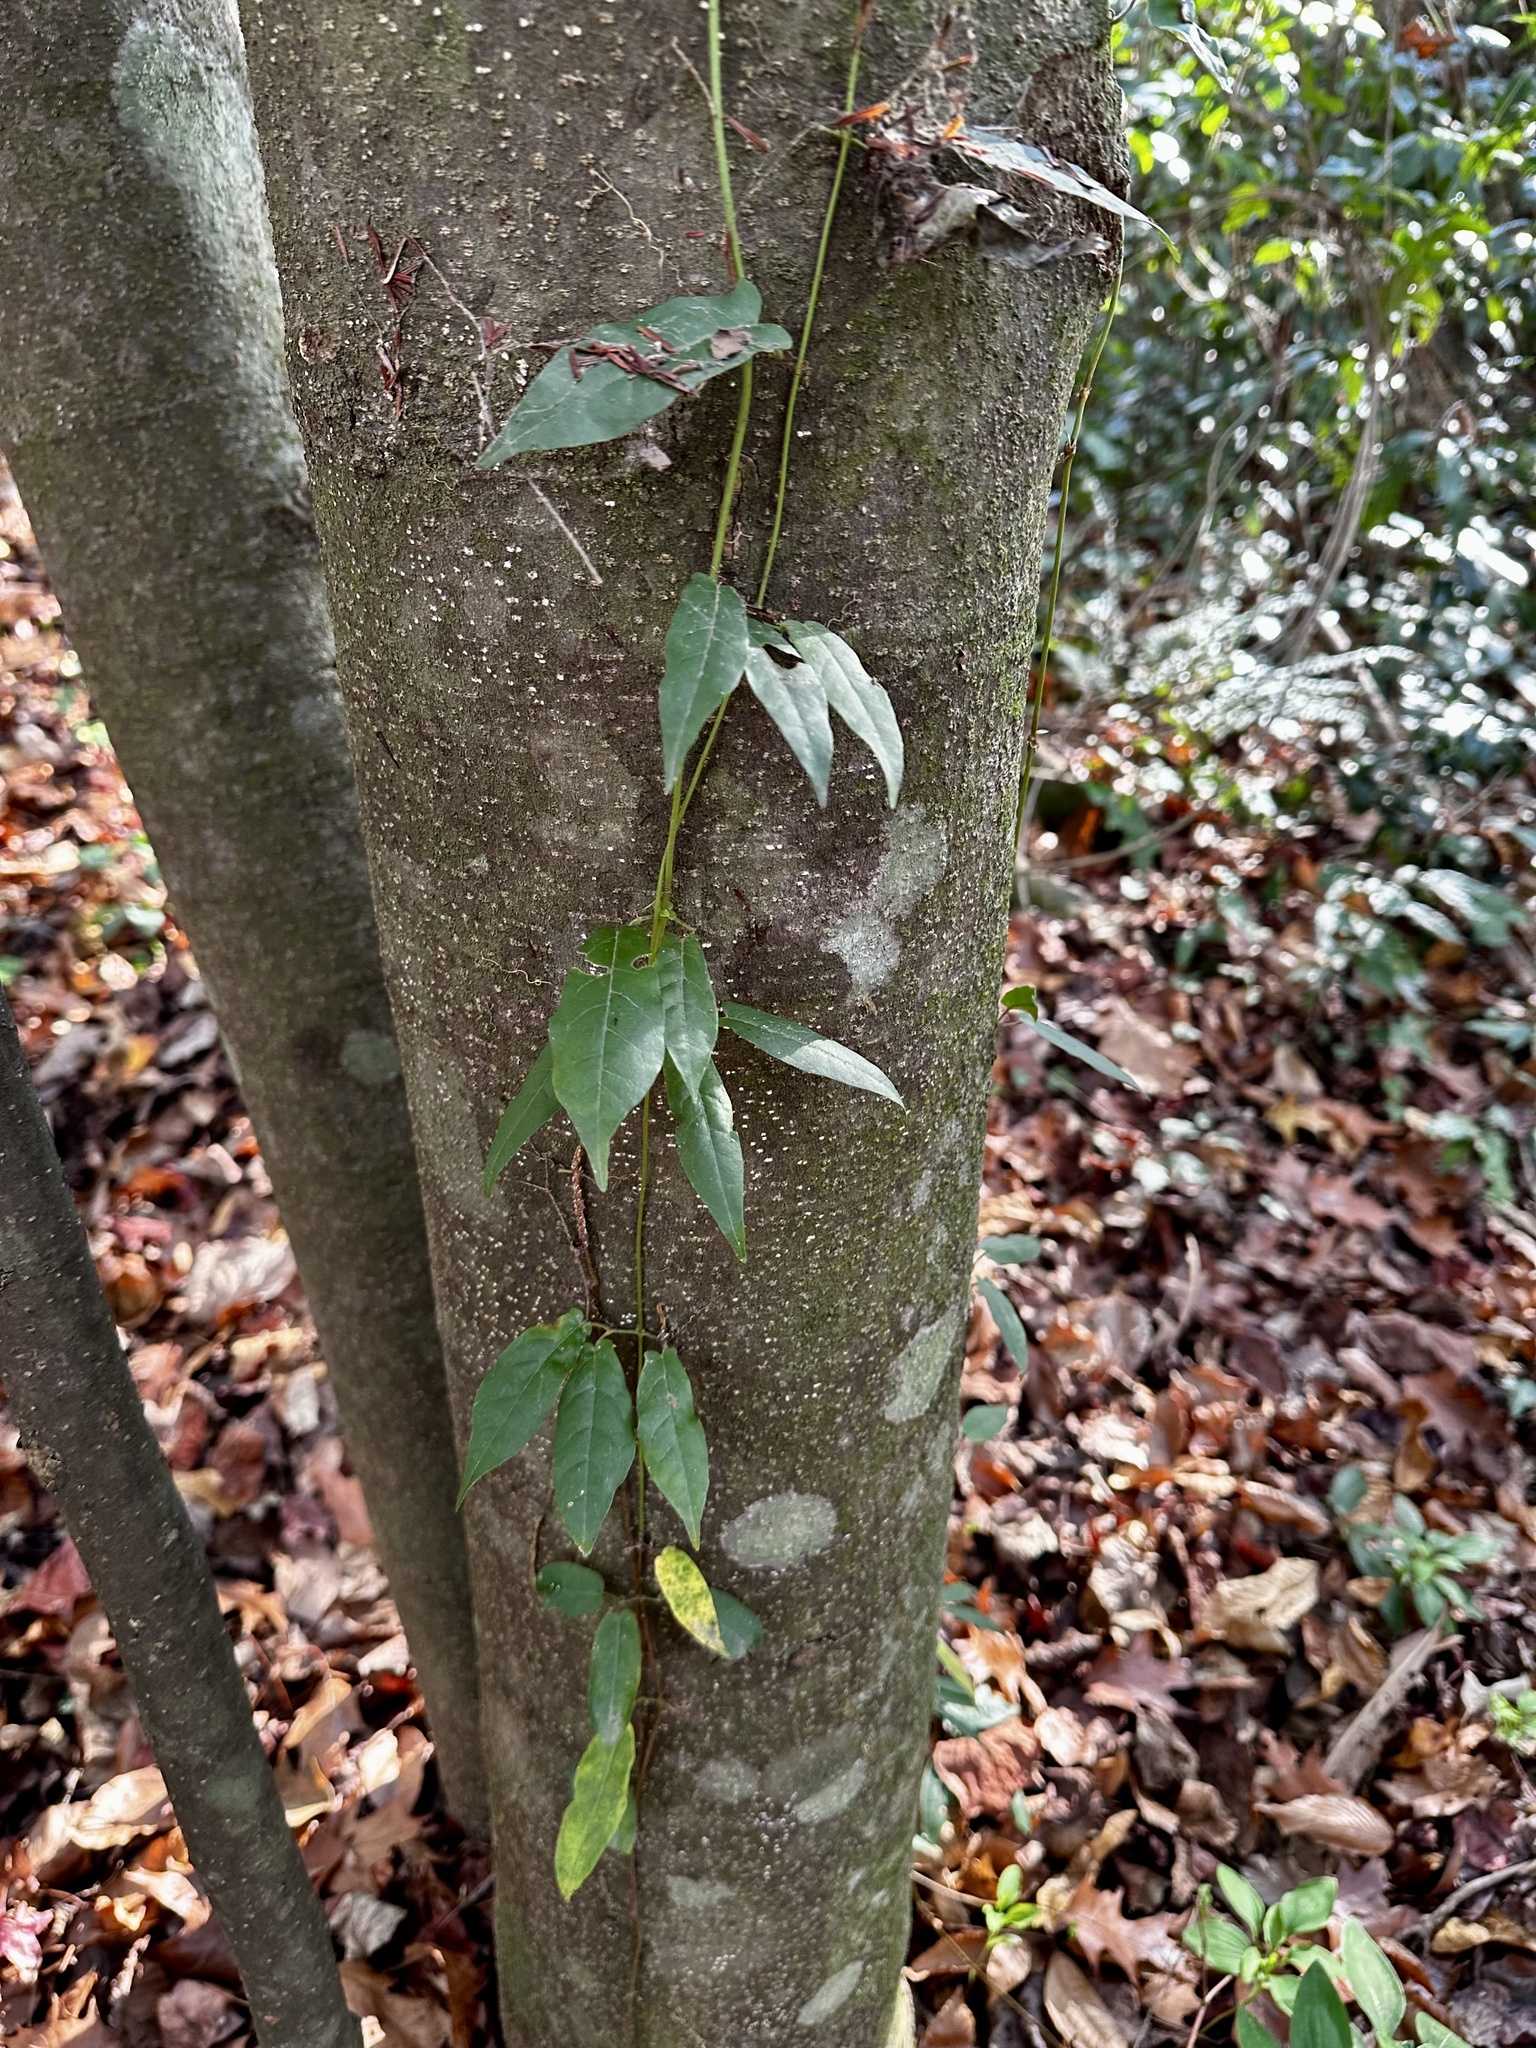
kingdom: Plantae
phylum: Tracheophyta
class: Magnoliopsida
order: Lamiales
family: Bignoniaceae
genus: Bignonia
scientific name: Bignonia capreolata
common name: Crossvine
